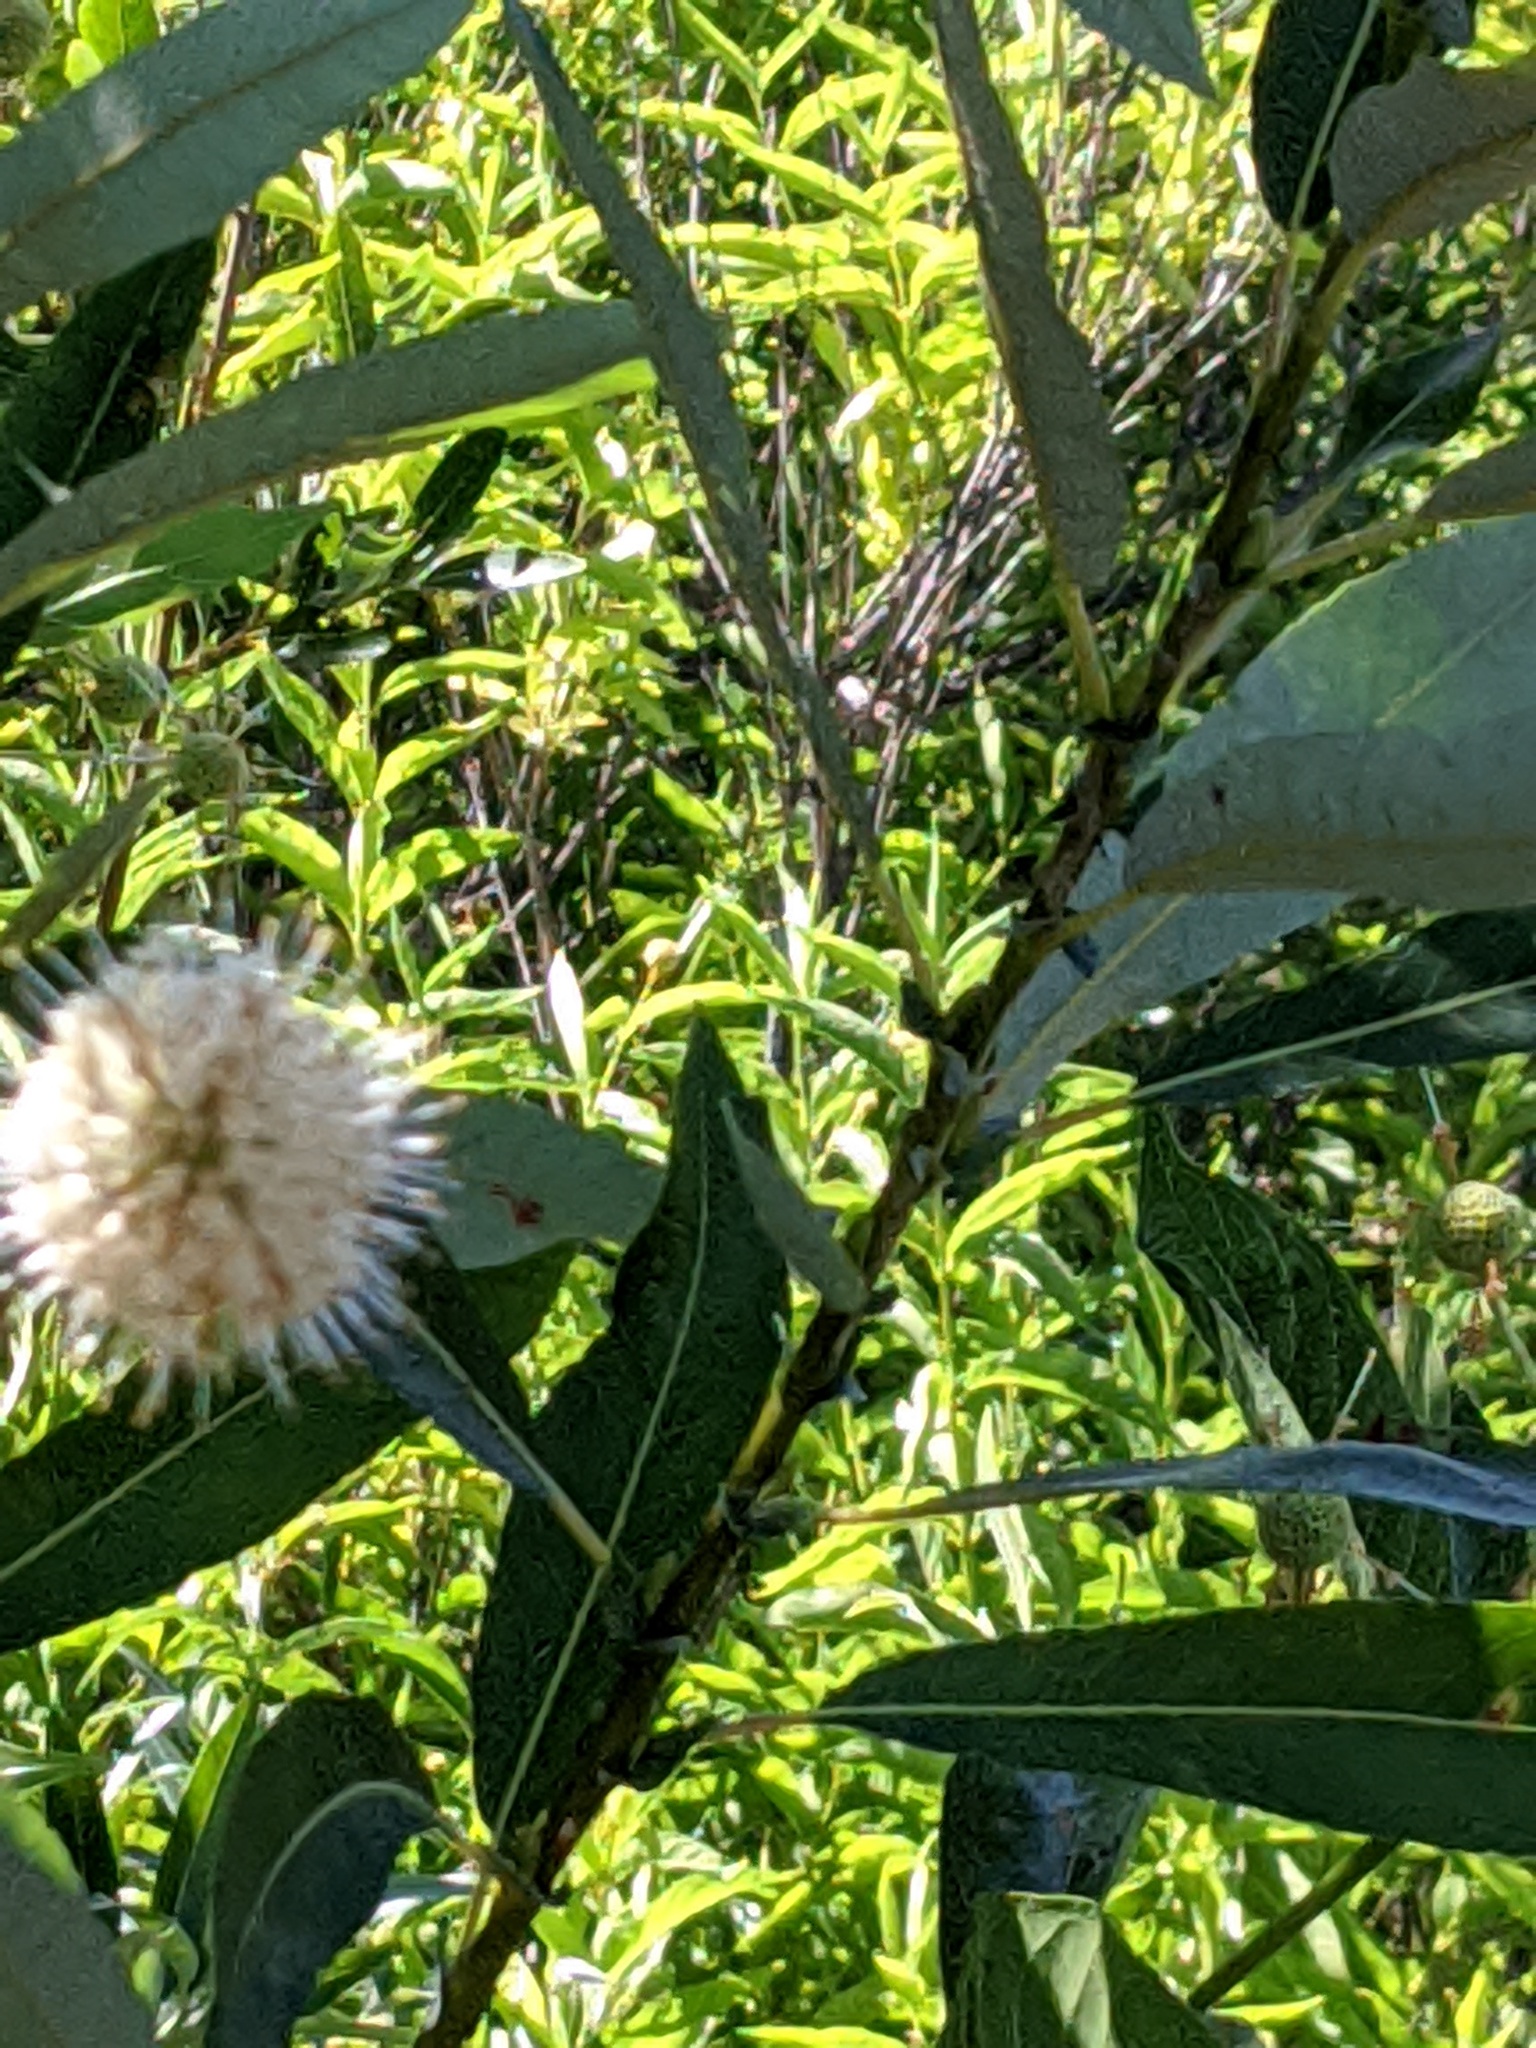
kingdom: Plantae
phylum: Tracheophyta
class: Magnoliopsida
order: Gentianales
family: Rubiaceae
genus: Cephalanthus
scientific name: Cephalanthus occidentalis
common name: Button-willow
